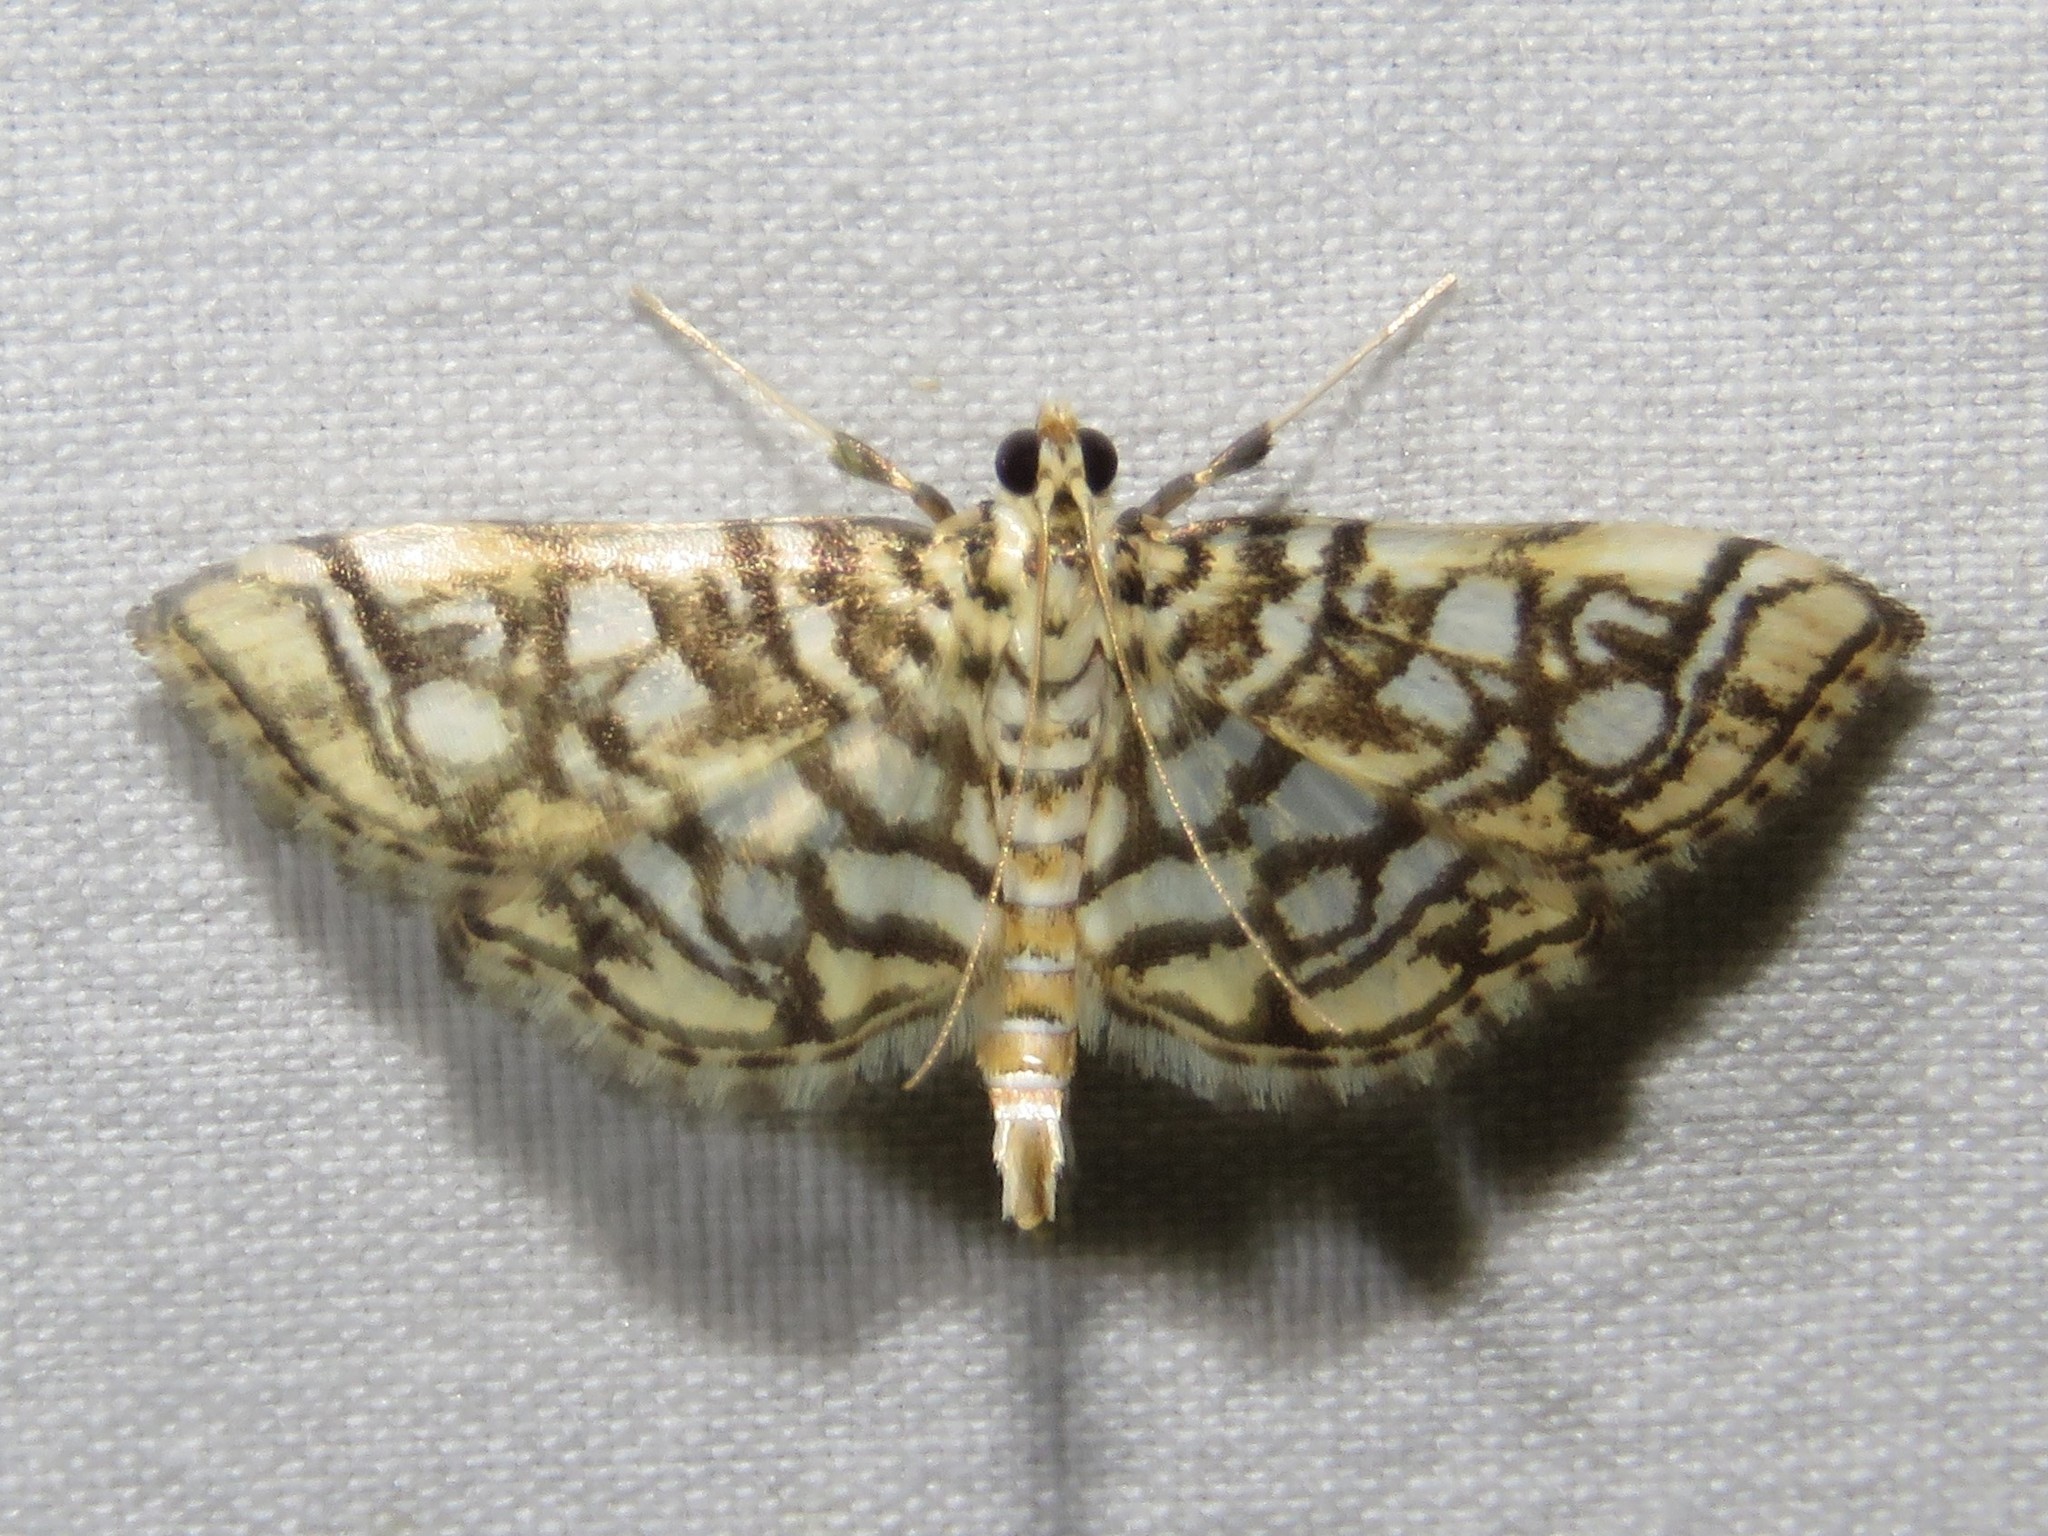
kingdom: Animalia
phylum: Arthropoda
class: Insecta
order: Lepidoptera
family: Crambidae
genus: Lygropia
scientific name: Lygropia rivulalis
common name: Bog lygropia moth
